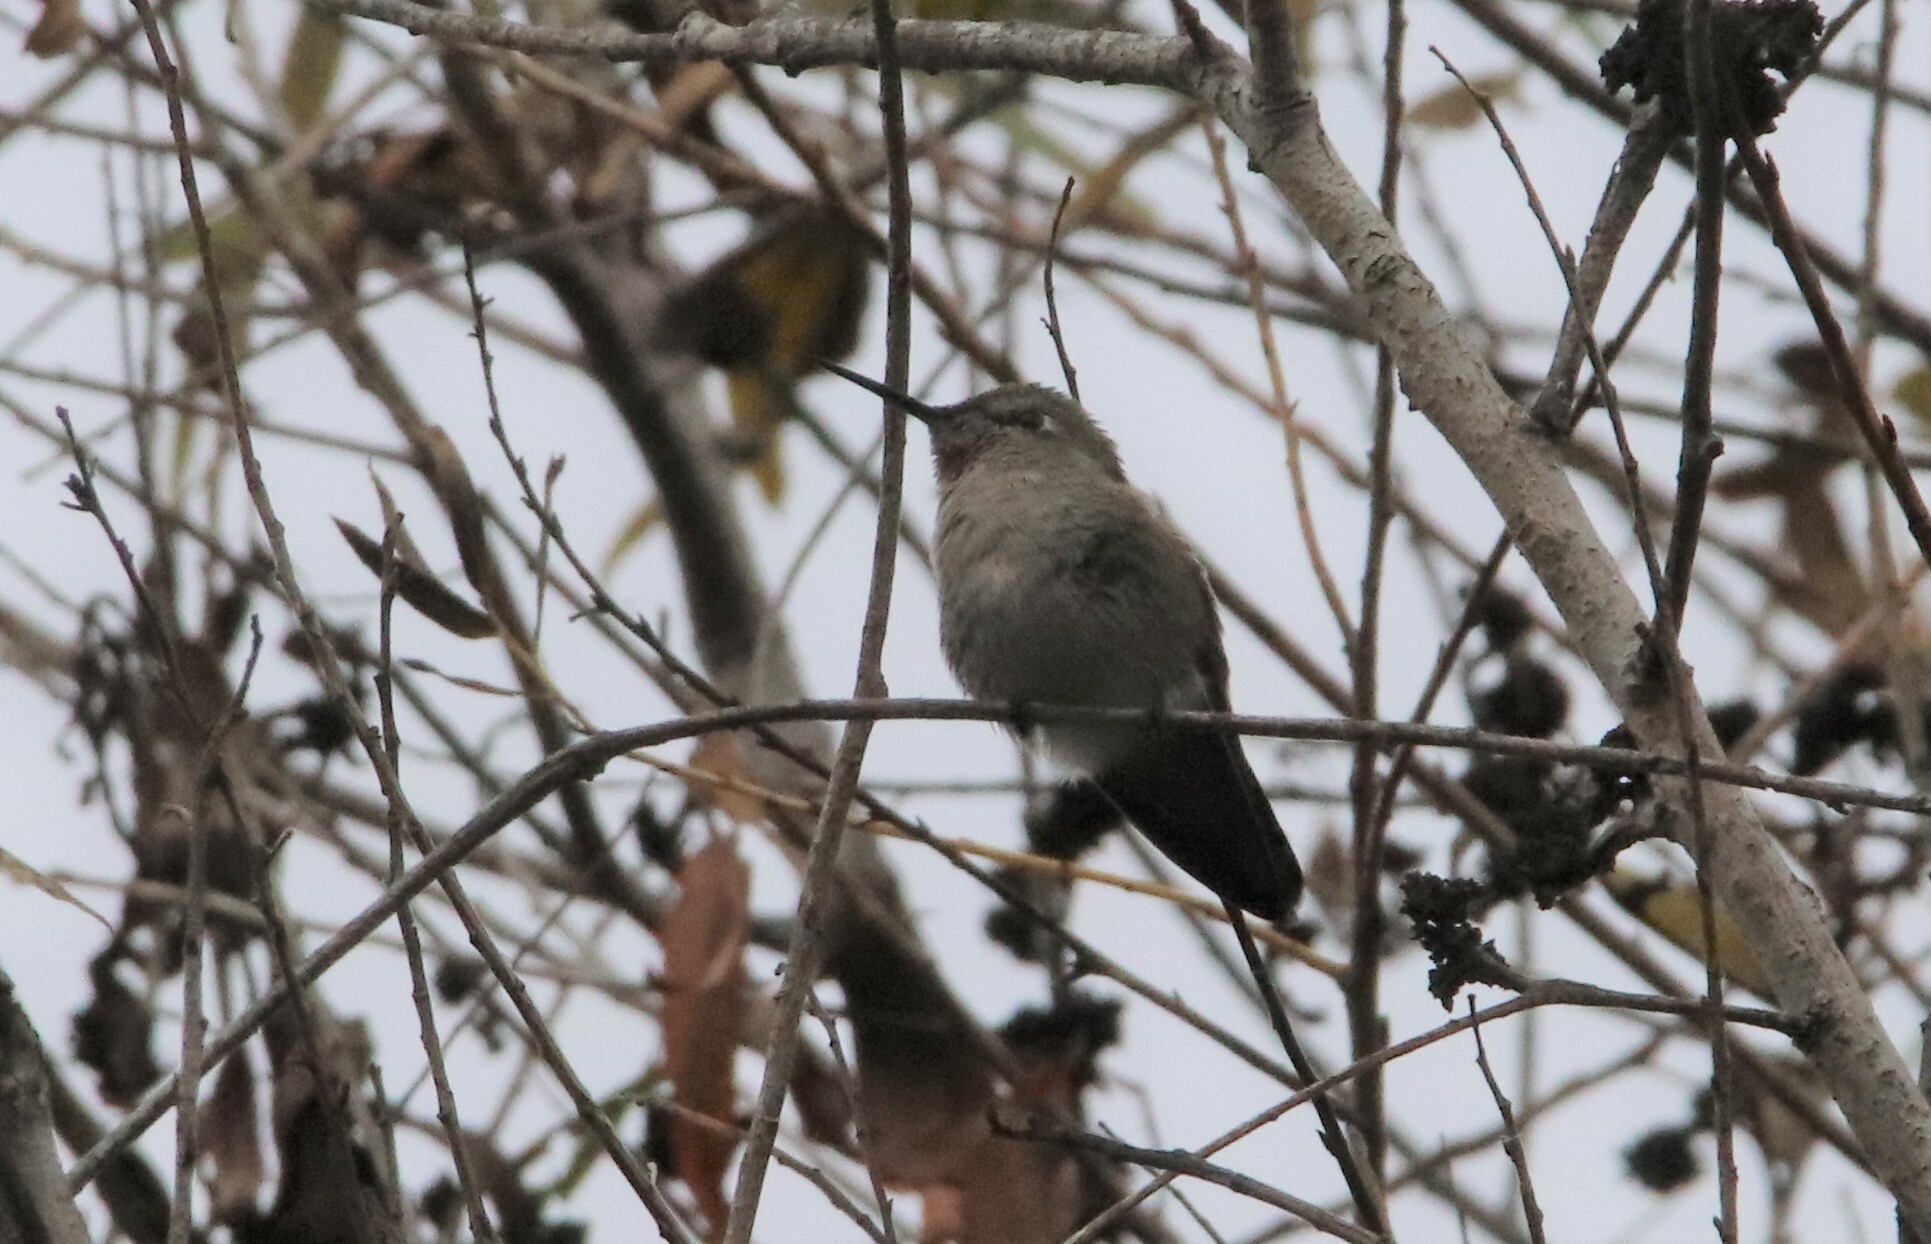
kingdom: Animalia
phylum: Chordata
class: Aves
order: Apodiformes
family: Trochilidae
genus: Calypte
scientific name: Calypte anna
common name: Anna's hummingbird
